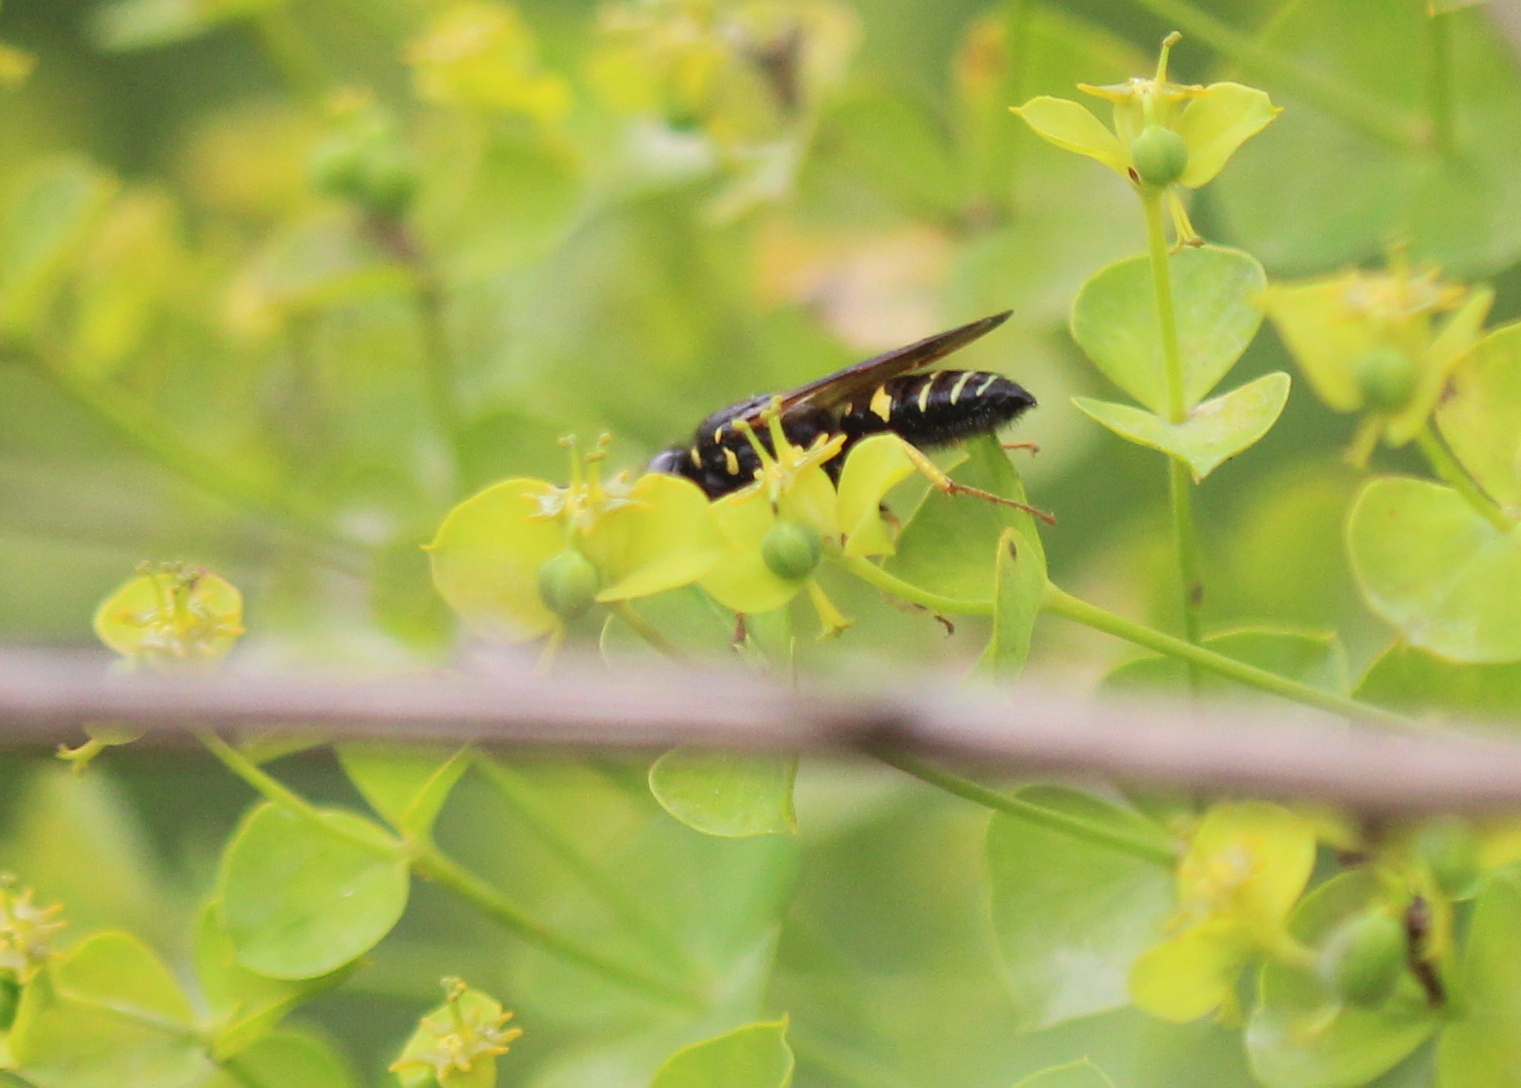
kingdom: Animalia
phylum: Arthropoda
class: Insecta
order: Hymenoptera
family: Crabronidae
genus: Philanthus
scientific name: Philanthus sanbornii
